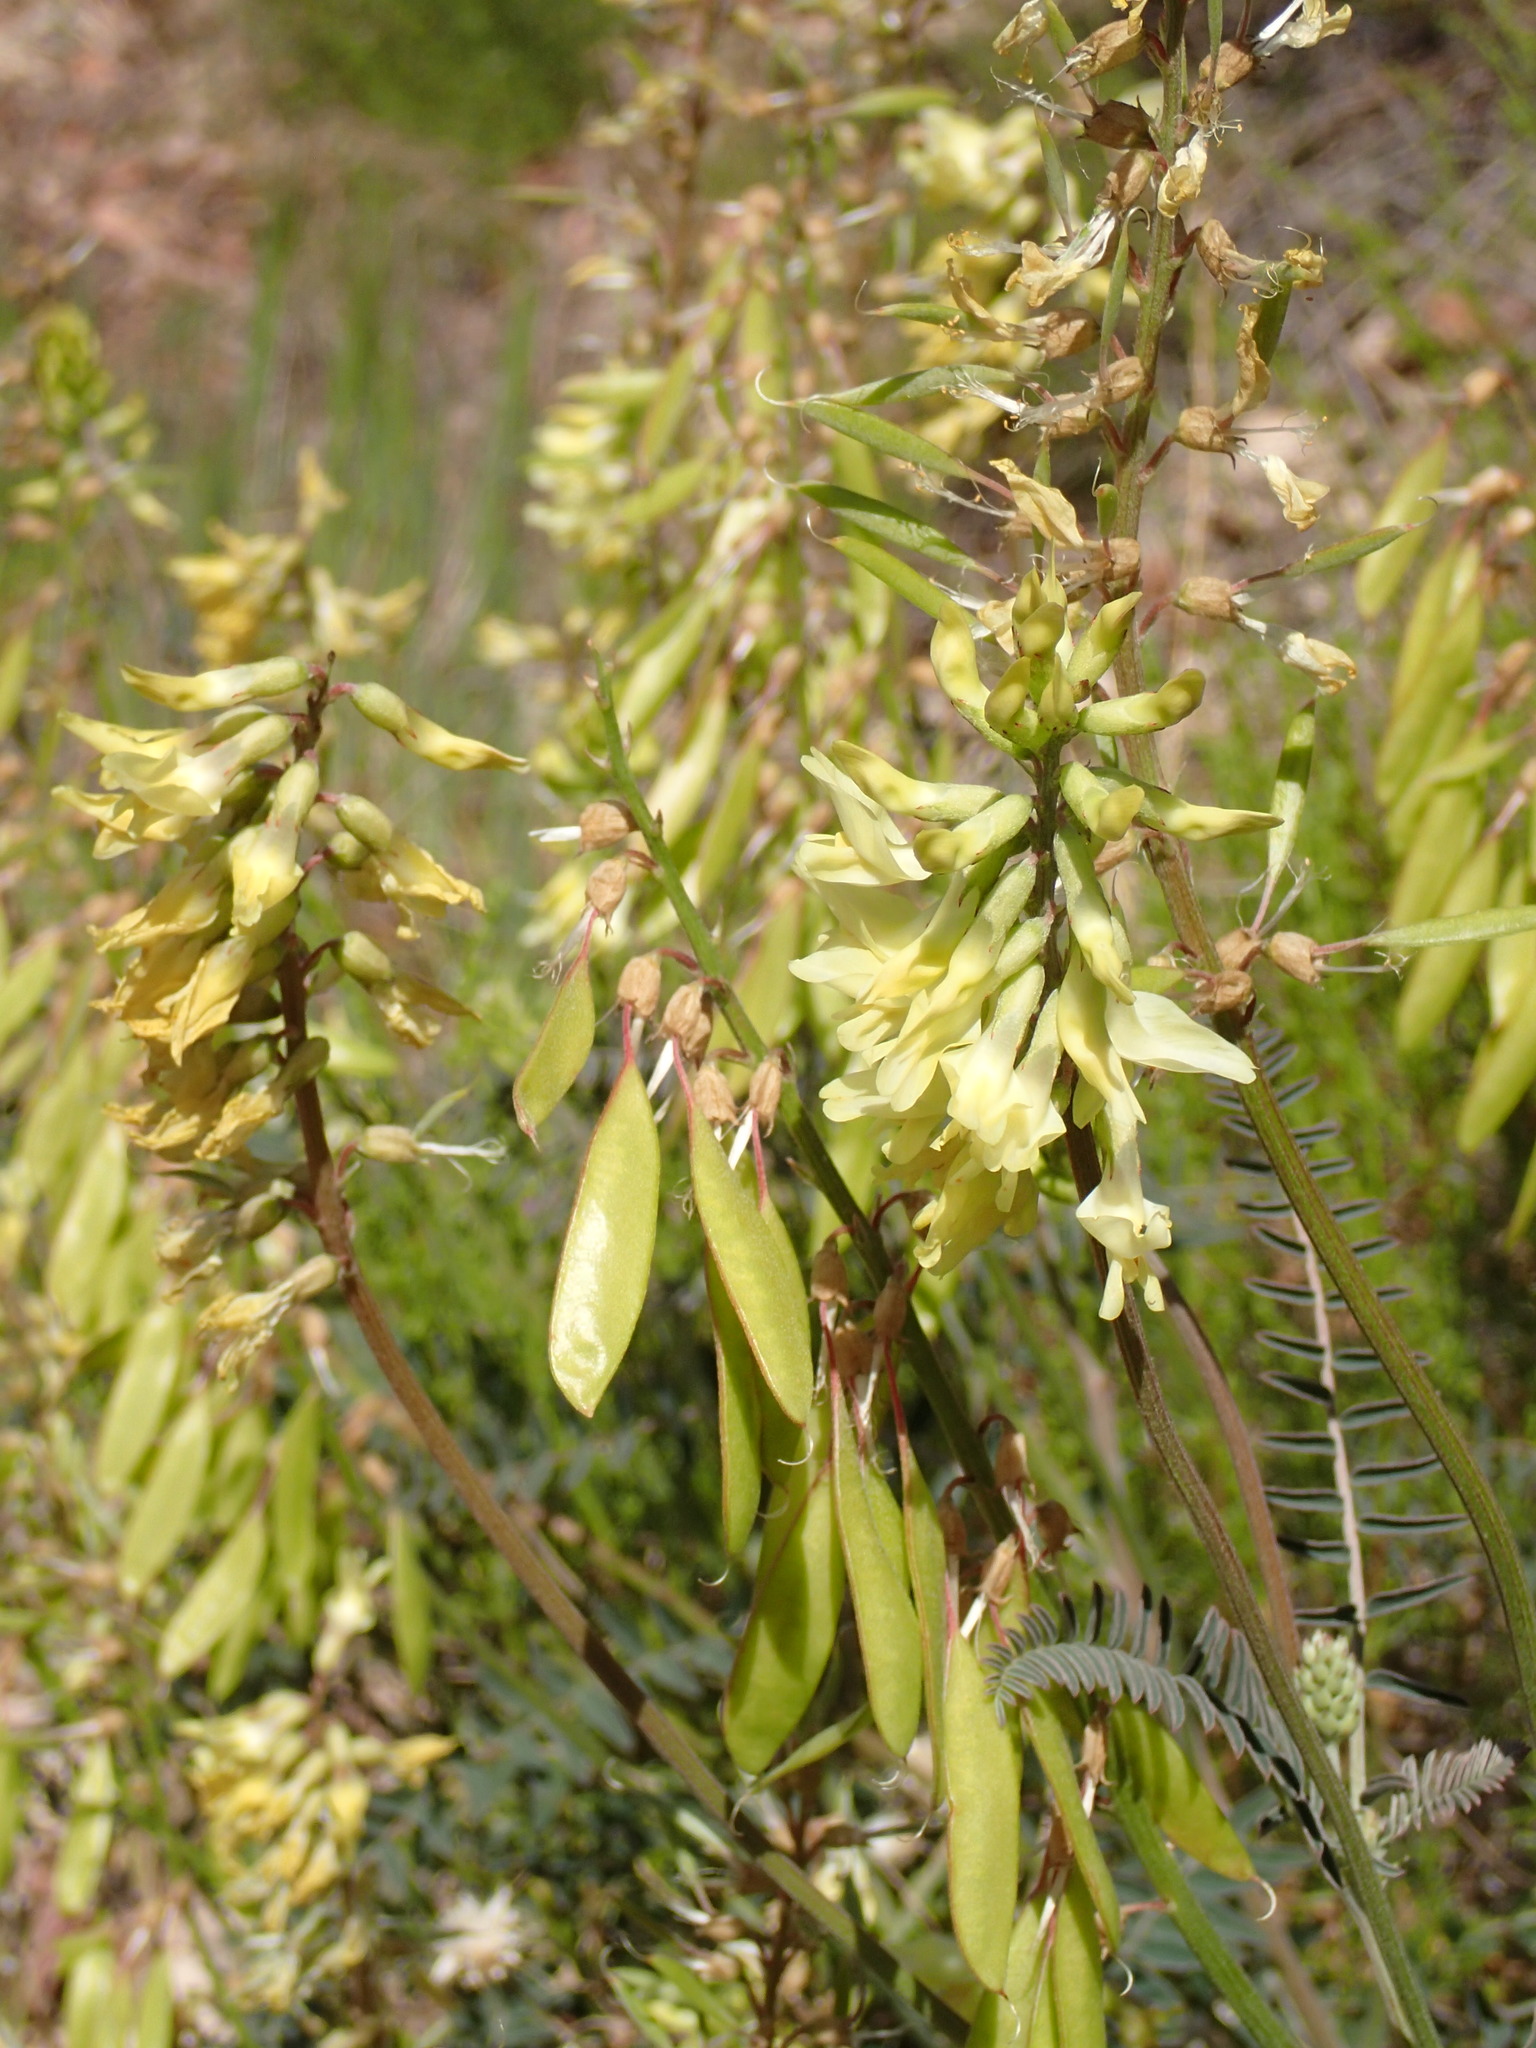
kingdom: Plantae
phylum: Tracheophyta
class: Magnoliopsida
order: Fabales
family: Fabaceae
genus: Astragalus
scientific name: Astragalus trichopodus
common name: Santa barbara milk-vetch
